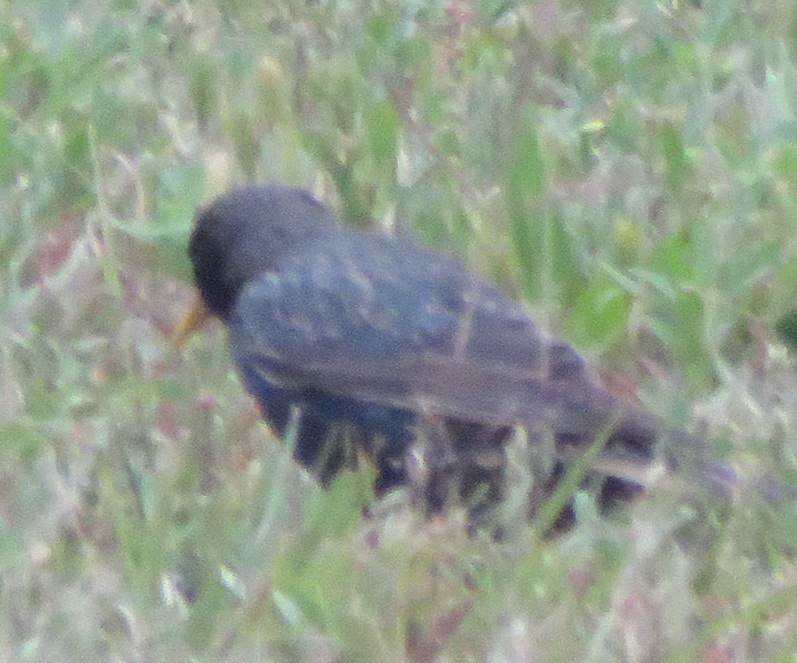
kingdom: Animalia
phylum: Chordata
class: Aves
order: Passeriformes
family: Sturnidae
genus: Sturnus
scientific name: Sturnus vulgaris
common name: Common starling
